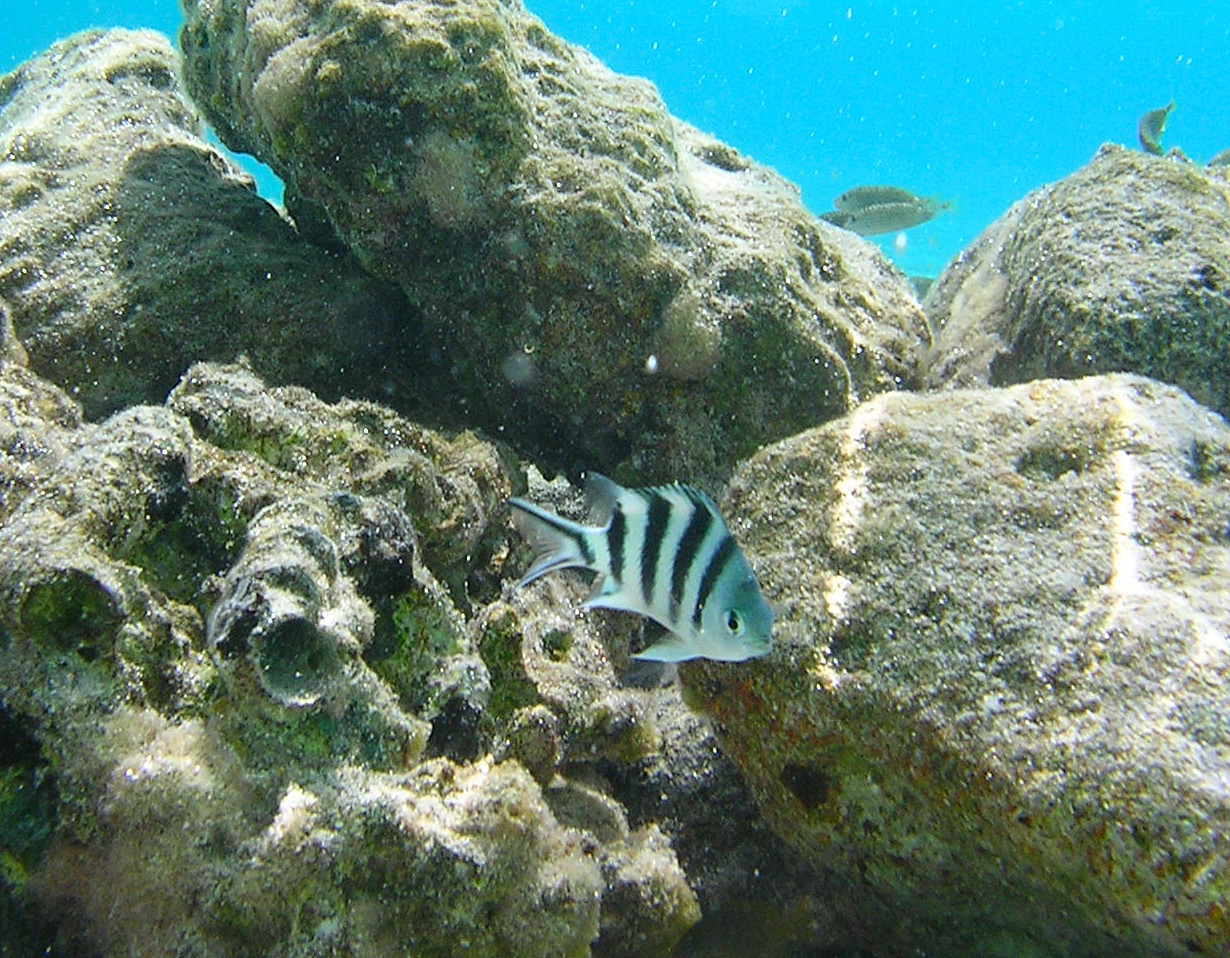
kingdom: Animalia
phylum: Chordata
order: Perciformes
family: Pomacentridae
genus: Abudefduf
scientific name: Abudefduf sexfasciatus
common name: Scissortail sergeant
